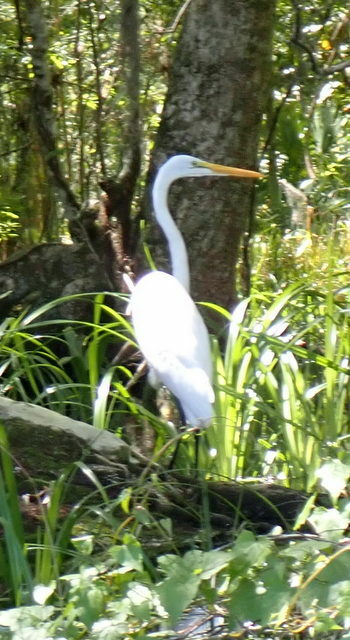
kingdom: Animalia
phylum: Chordata
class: Aves
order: Pelecaniformes
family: Ardeidae
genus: Ardea
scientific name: Ardea alba
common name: Great egret
